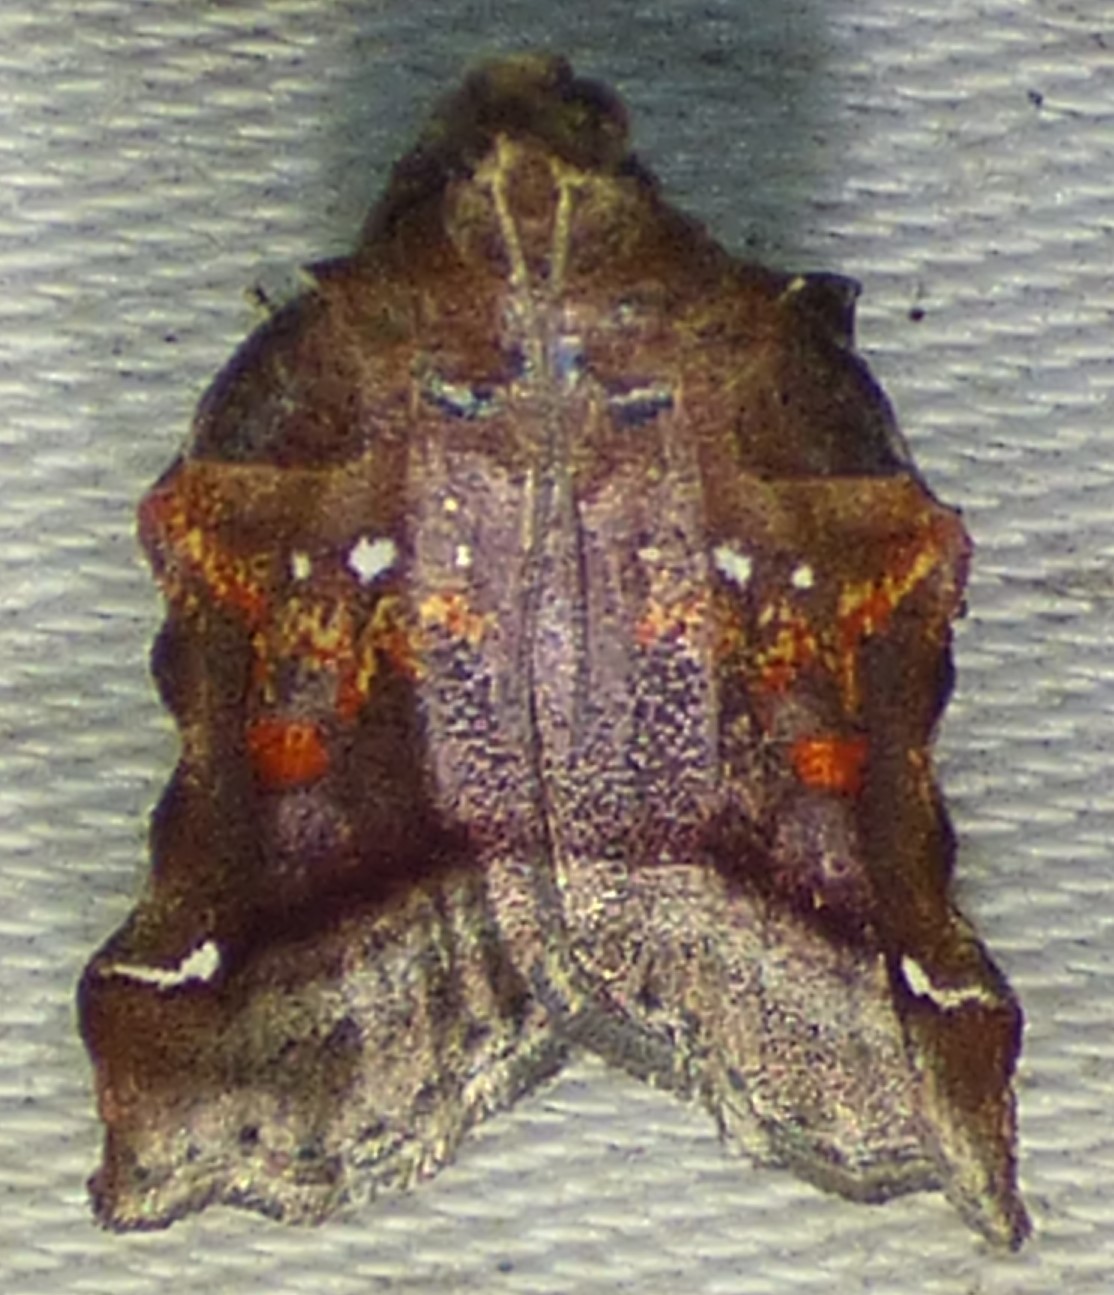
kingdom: Animalia
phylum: Arthropoda
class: Insecta
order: Lepidoptera
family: Pyralidae
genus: Clydonopteron
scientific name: Clydonopteron sacculana
